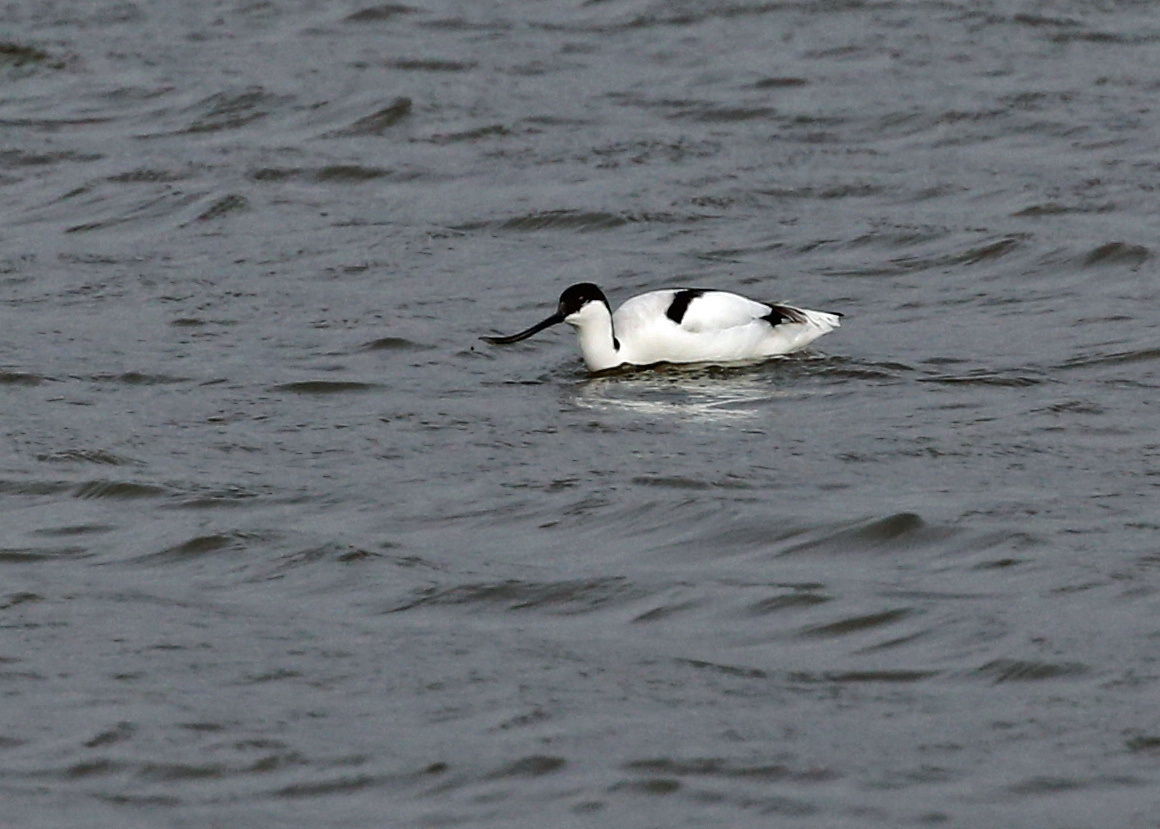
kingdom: Animalia
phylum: Chordata
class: Aves
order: Charadriiformes
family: Recurvirostridae
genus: Recurvirostra
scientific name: Recurvirostra avosetta
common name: Pied avocet
